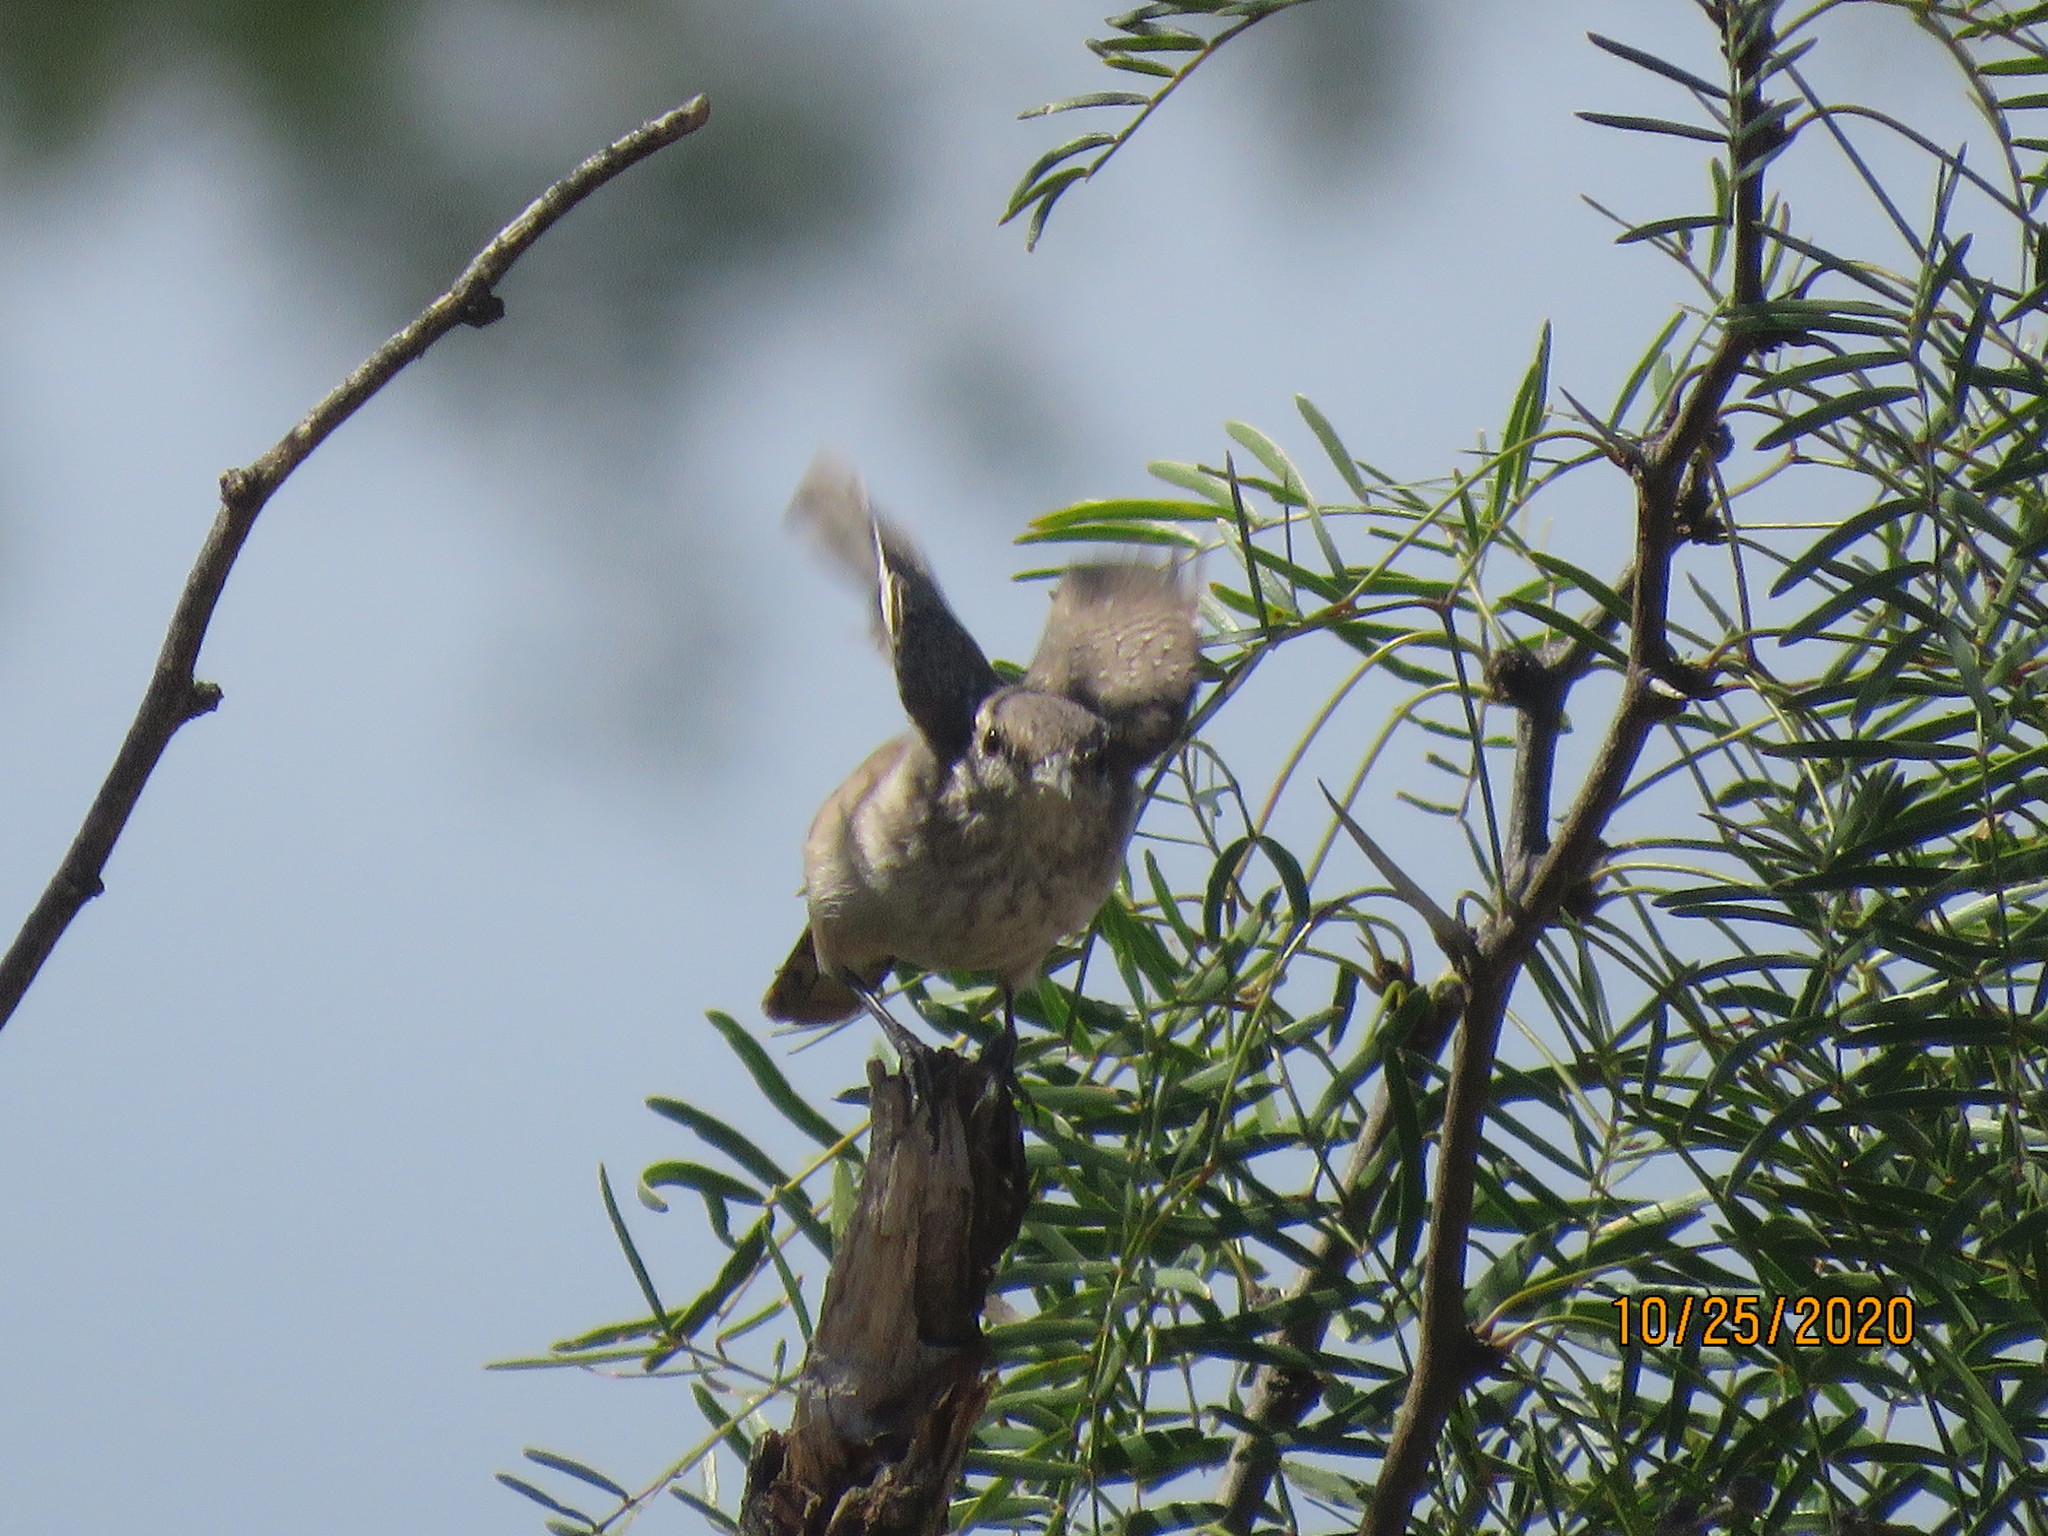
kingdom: Animalia
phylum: Chordata
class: Aves
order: Passeriformes
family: Troglodytidae
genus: Salpinctes
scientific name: Salpinctes obsoletus
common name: Rock wren
